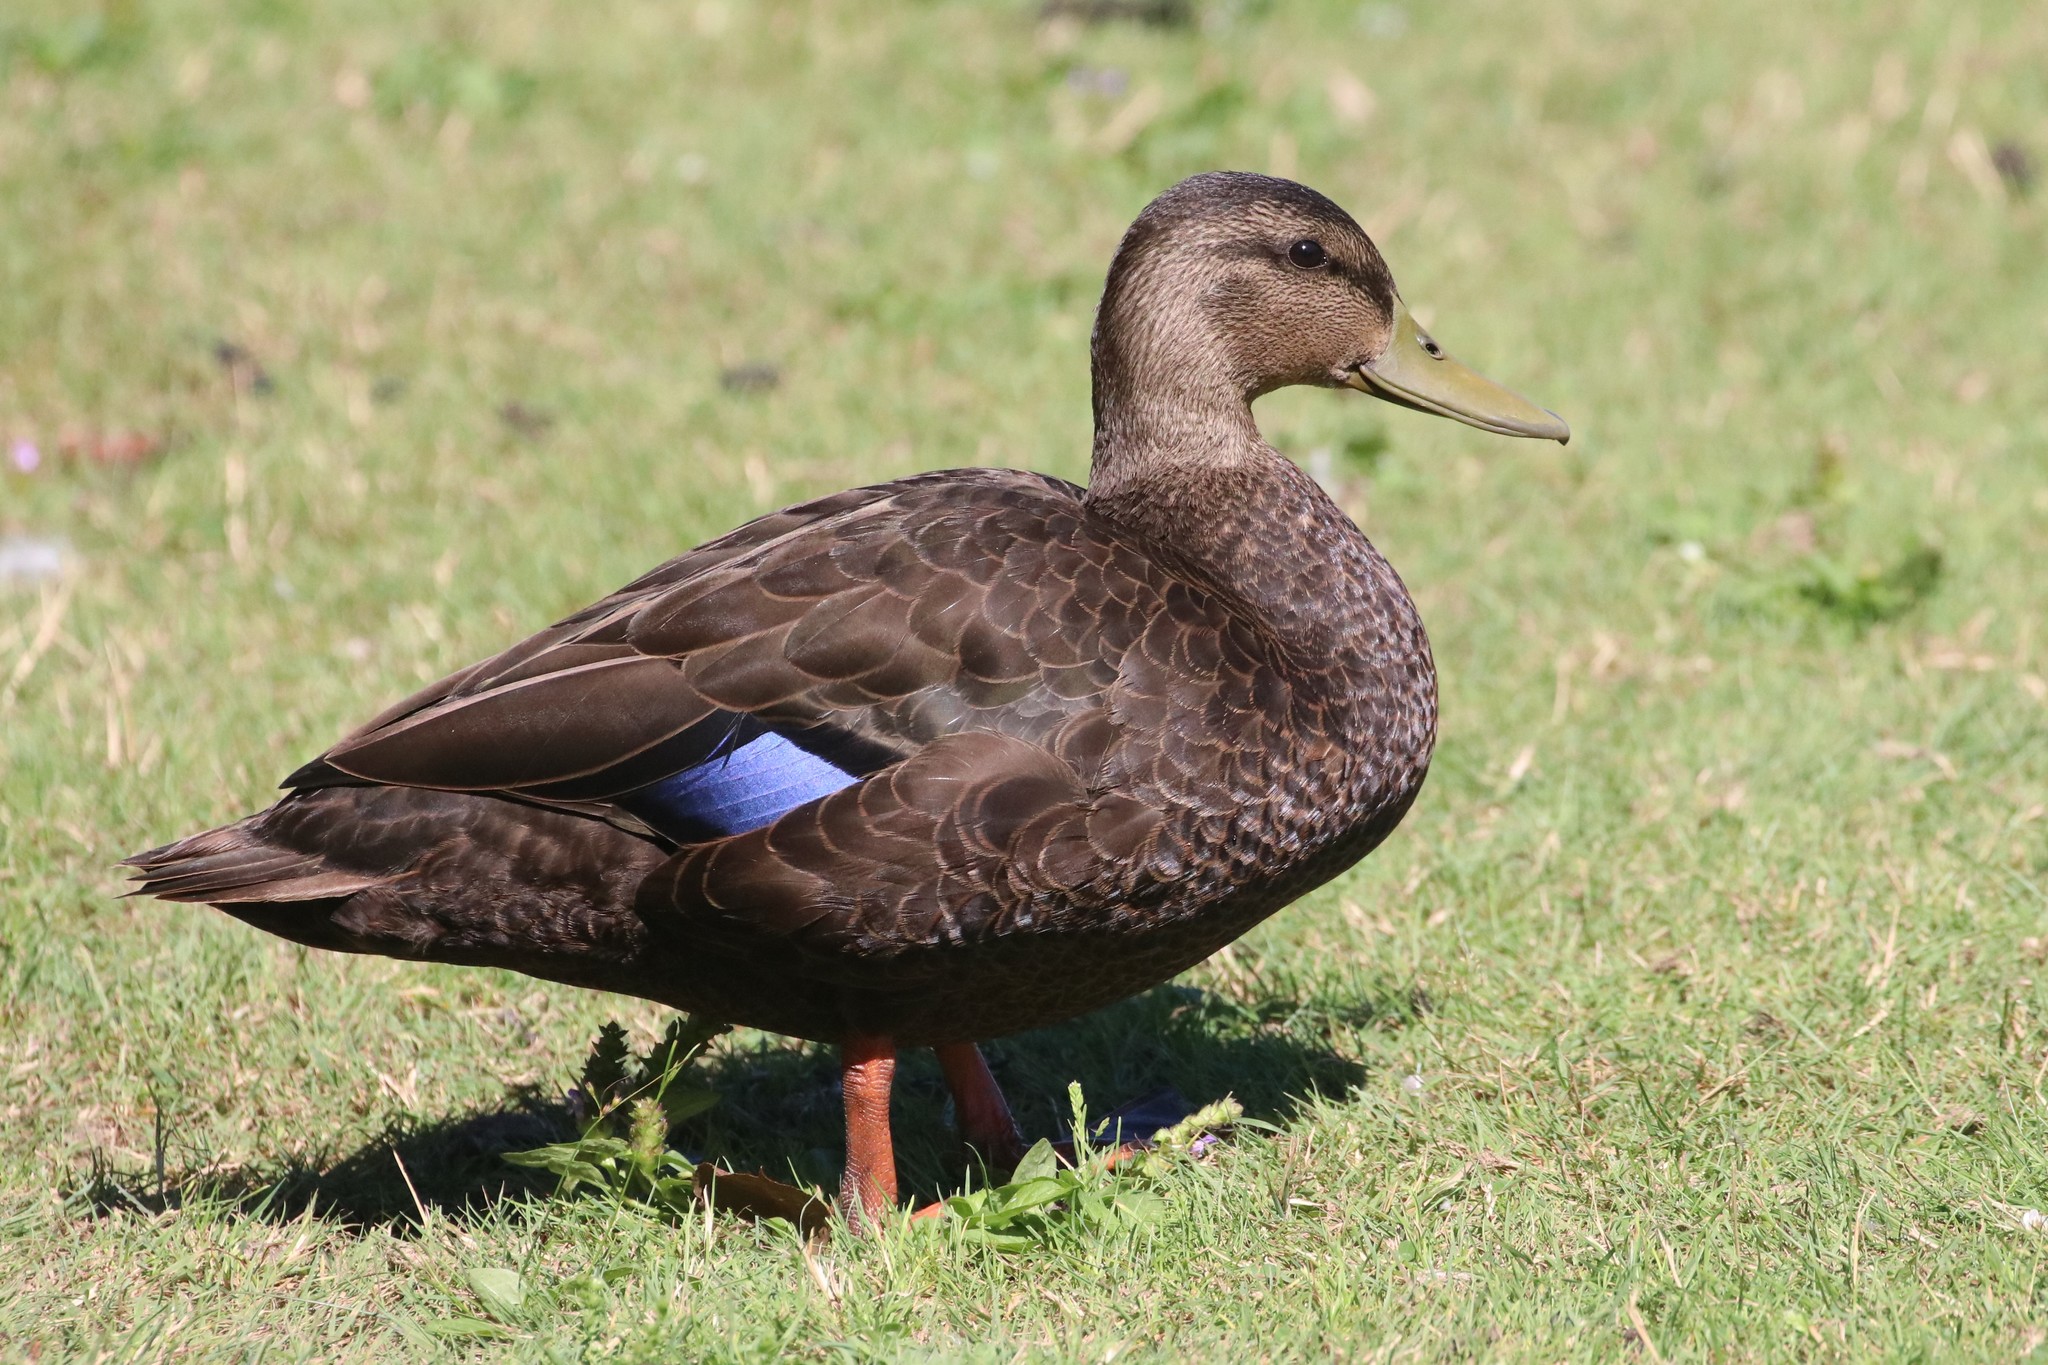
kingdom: Animalia
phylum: Chordata
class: Aves
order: Anseriformes
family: Anatidae
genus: Anas
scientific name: Anas rubripes
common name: American black duck
